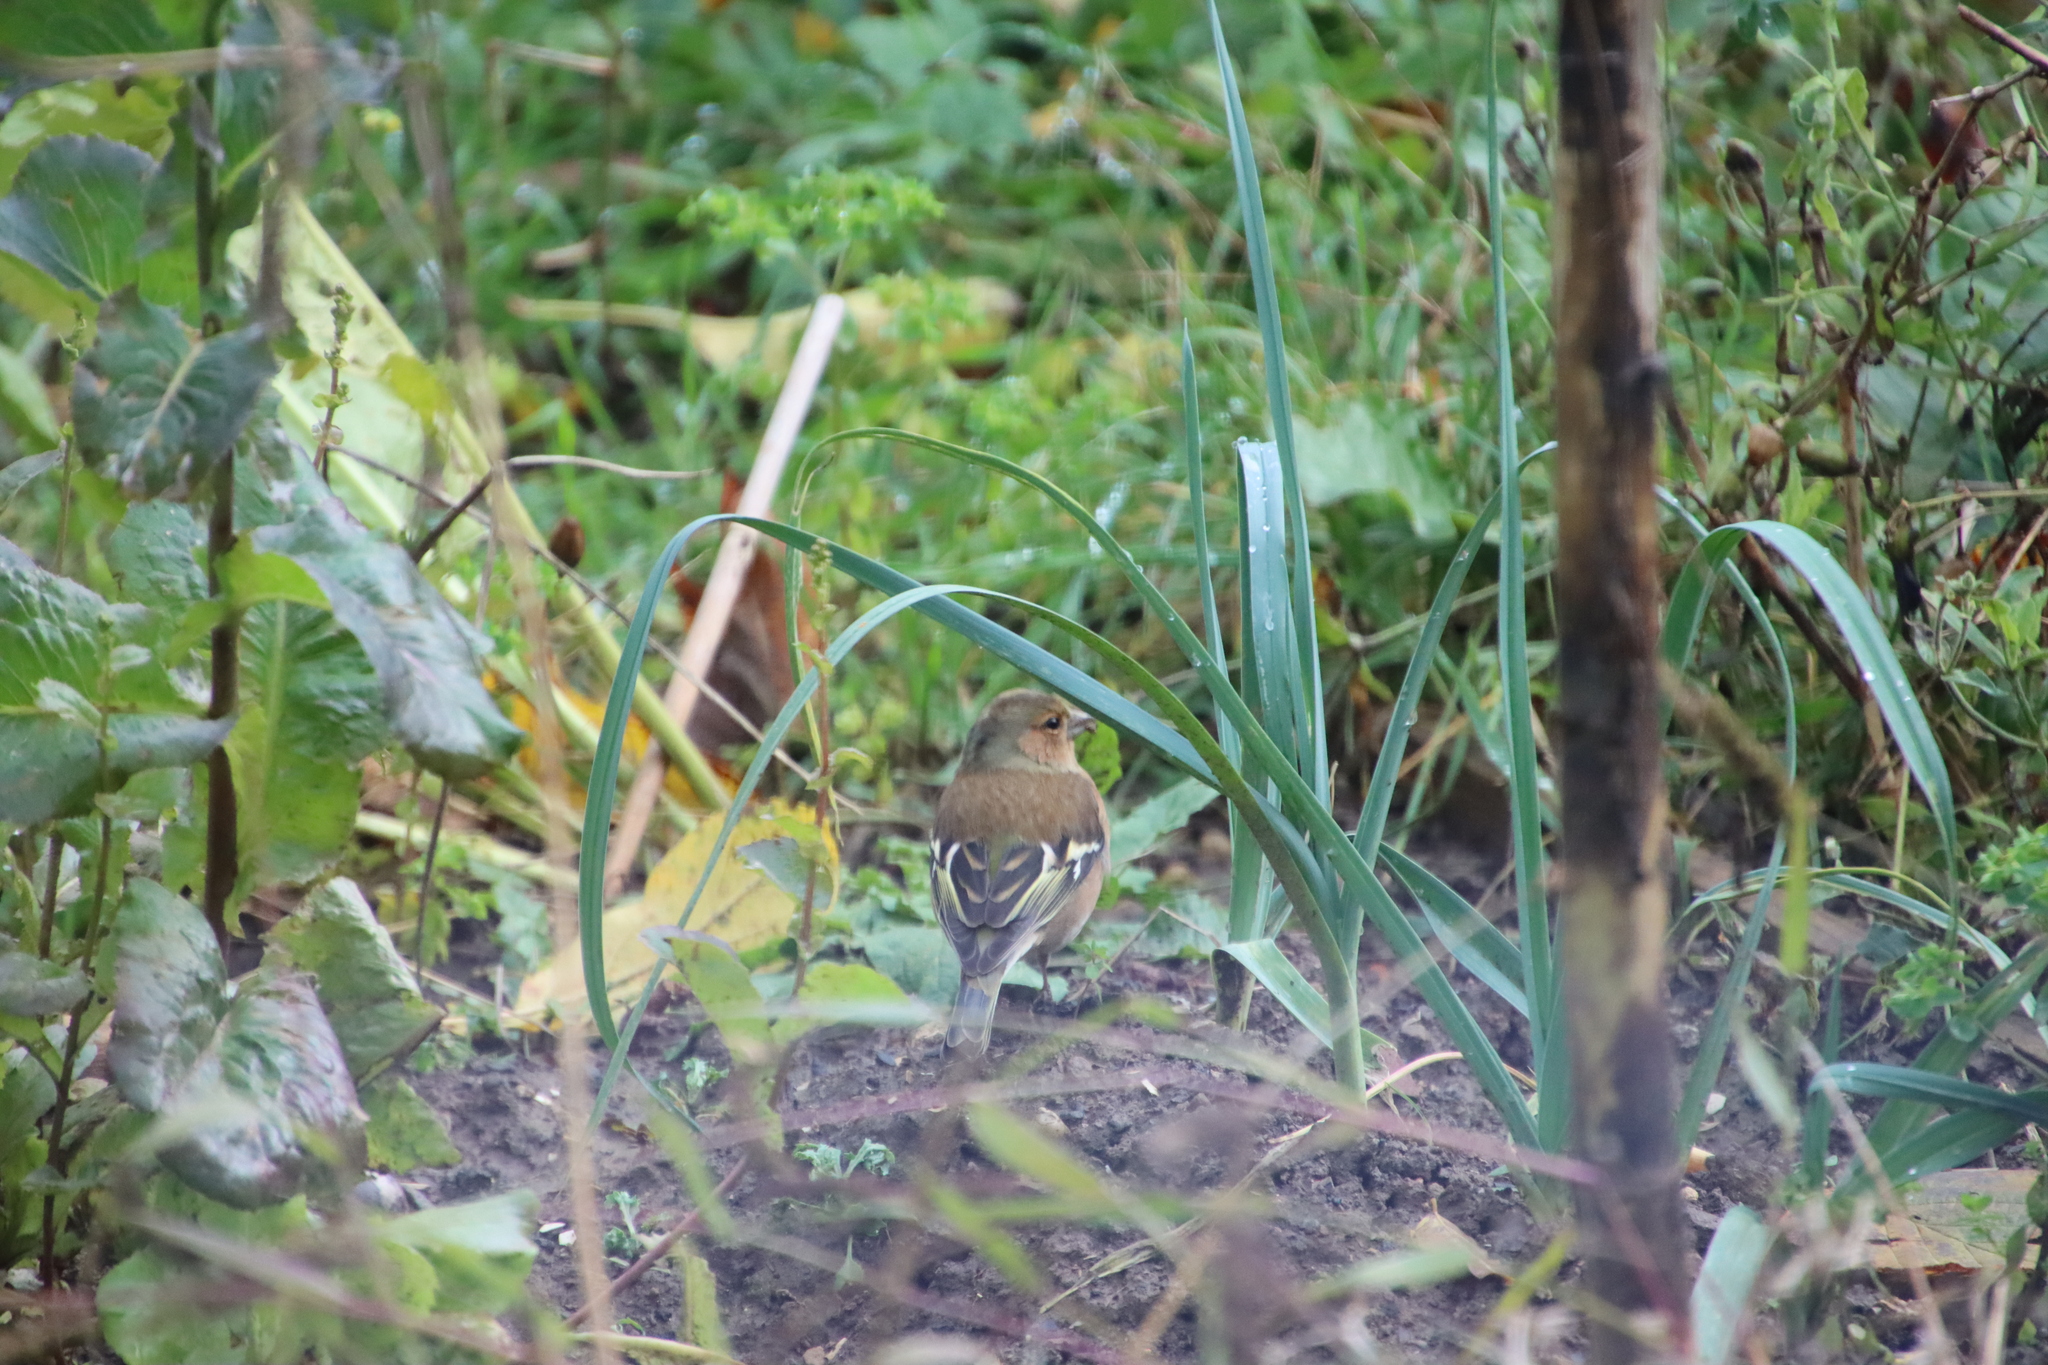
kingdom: Animalia
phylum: Chordata
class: Aves
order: Passeriformes
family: Fringillidae
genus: Fringilla
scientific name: Fringilla coelebs
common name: Common chaffinch
